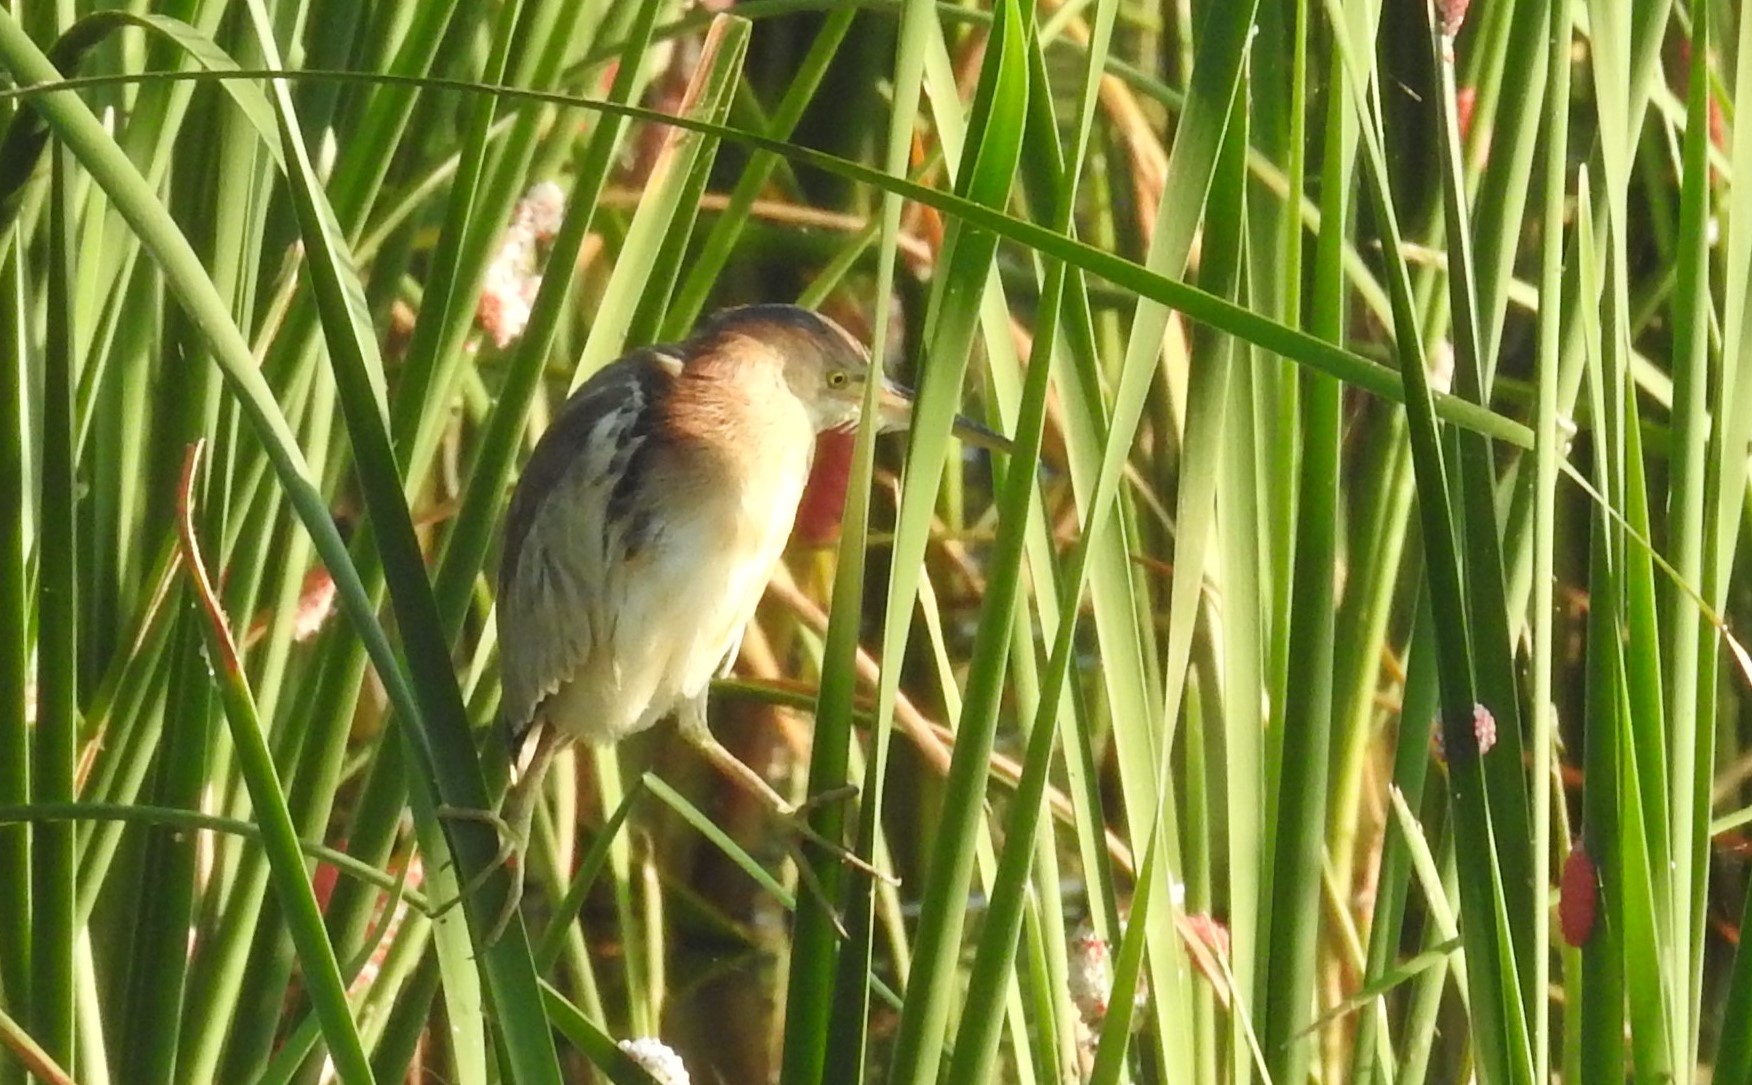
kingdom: Animalia
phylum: Chordata
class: Aves
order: Pelecaniformes
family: Ardeidae
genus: Ixobrychus
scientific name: Ixobrychus sinensis
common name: Yellow bittern
